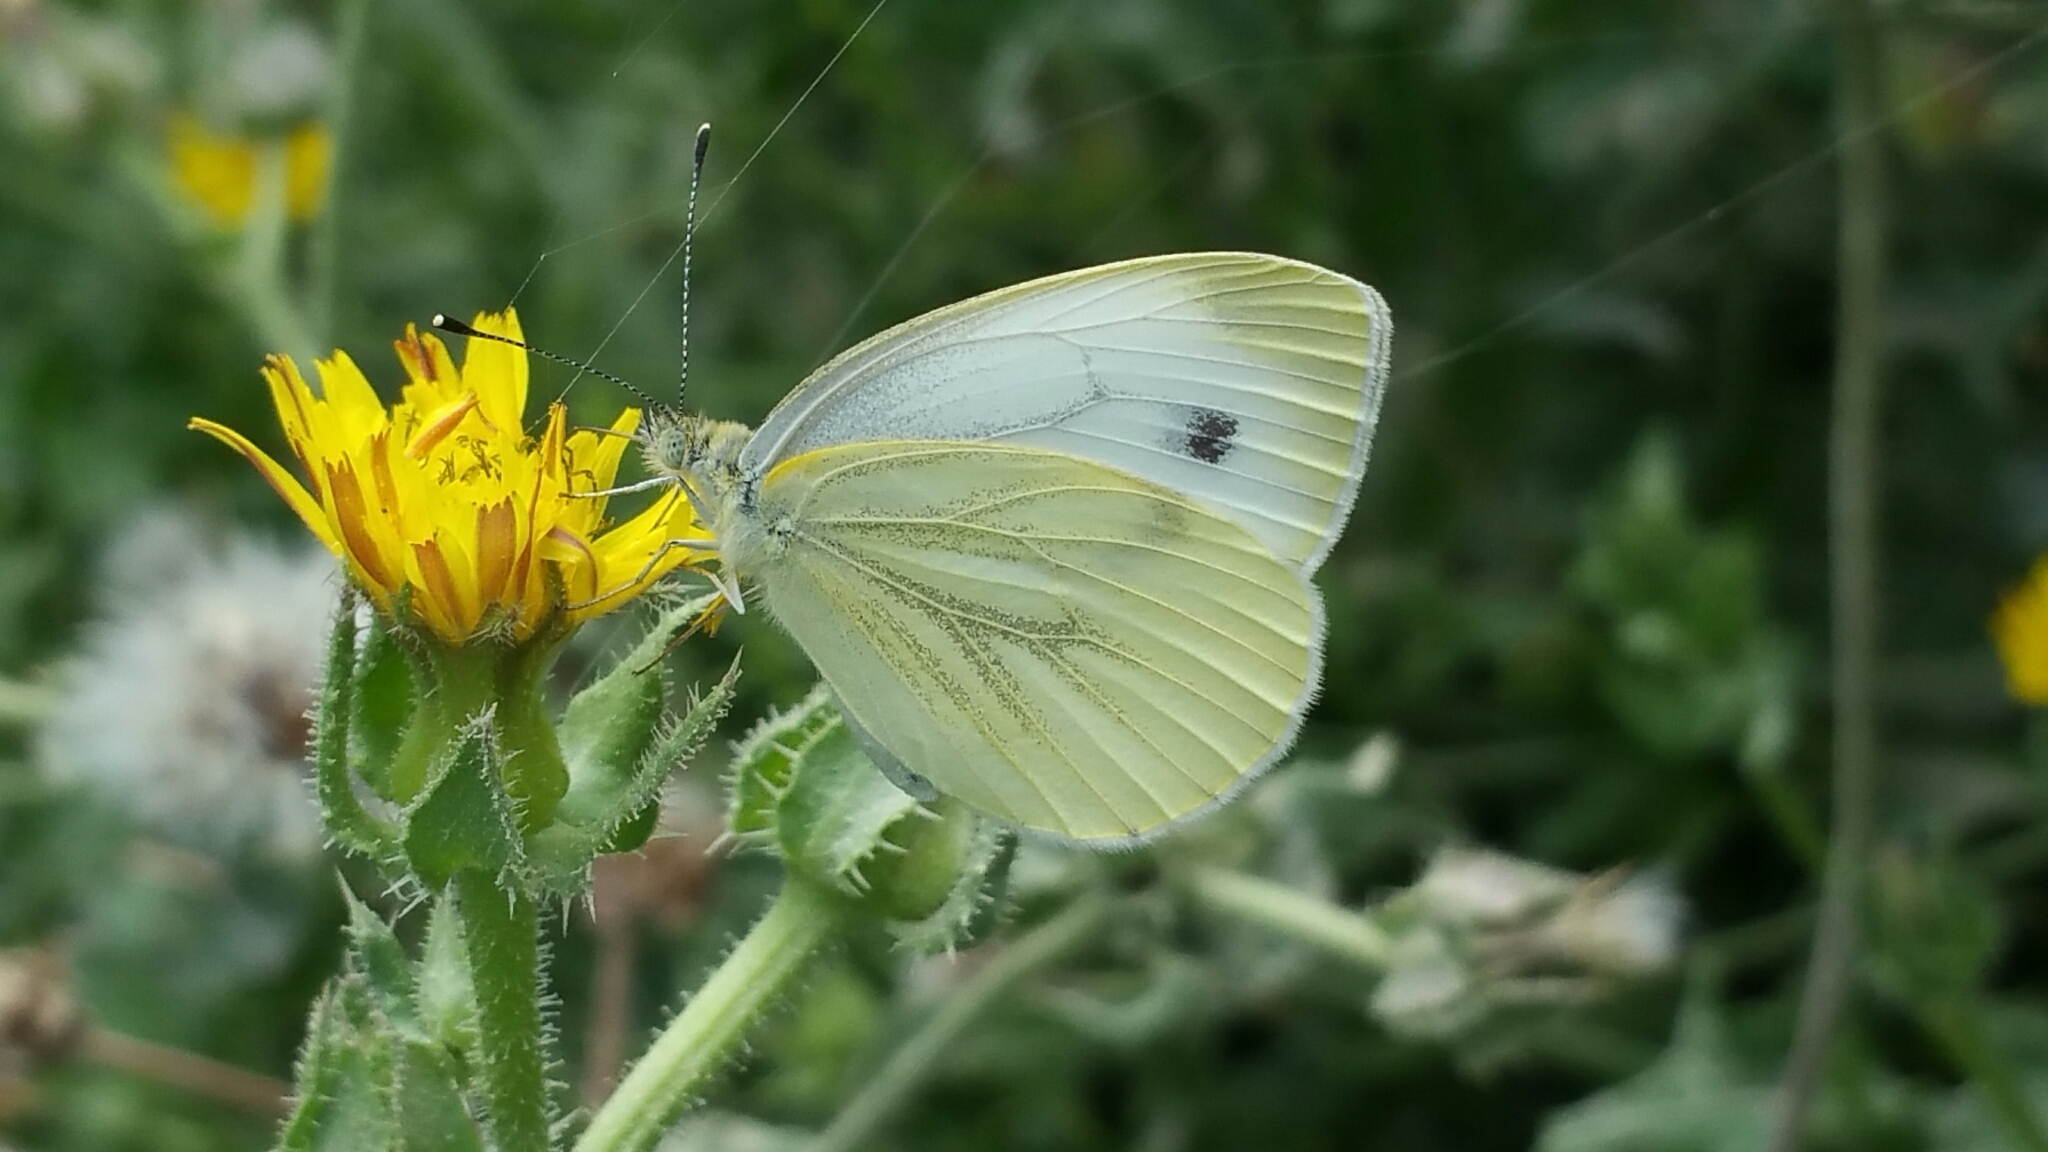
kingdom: Animalia
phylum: Arthropoda
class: Insecta
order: Lepidoptera
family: Pieridae
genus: Pieris
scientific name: Pieris napi
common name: Green-veined white
